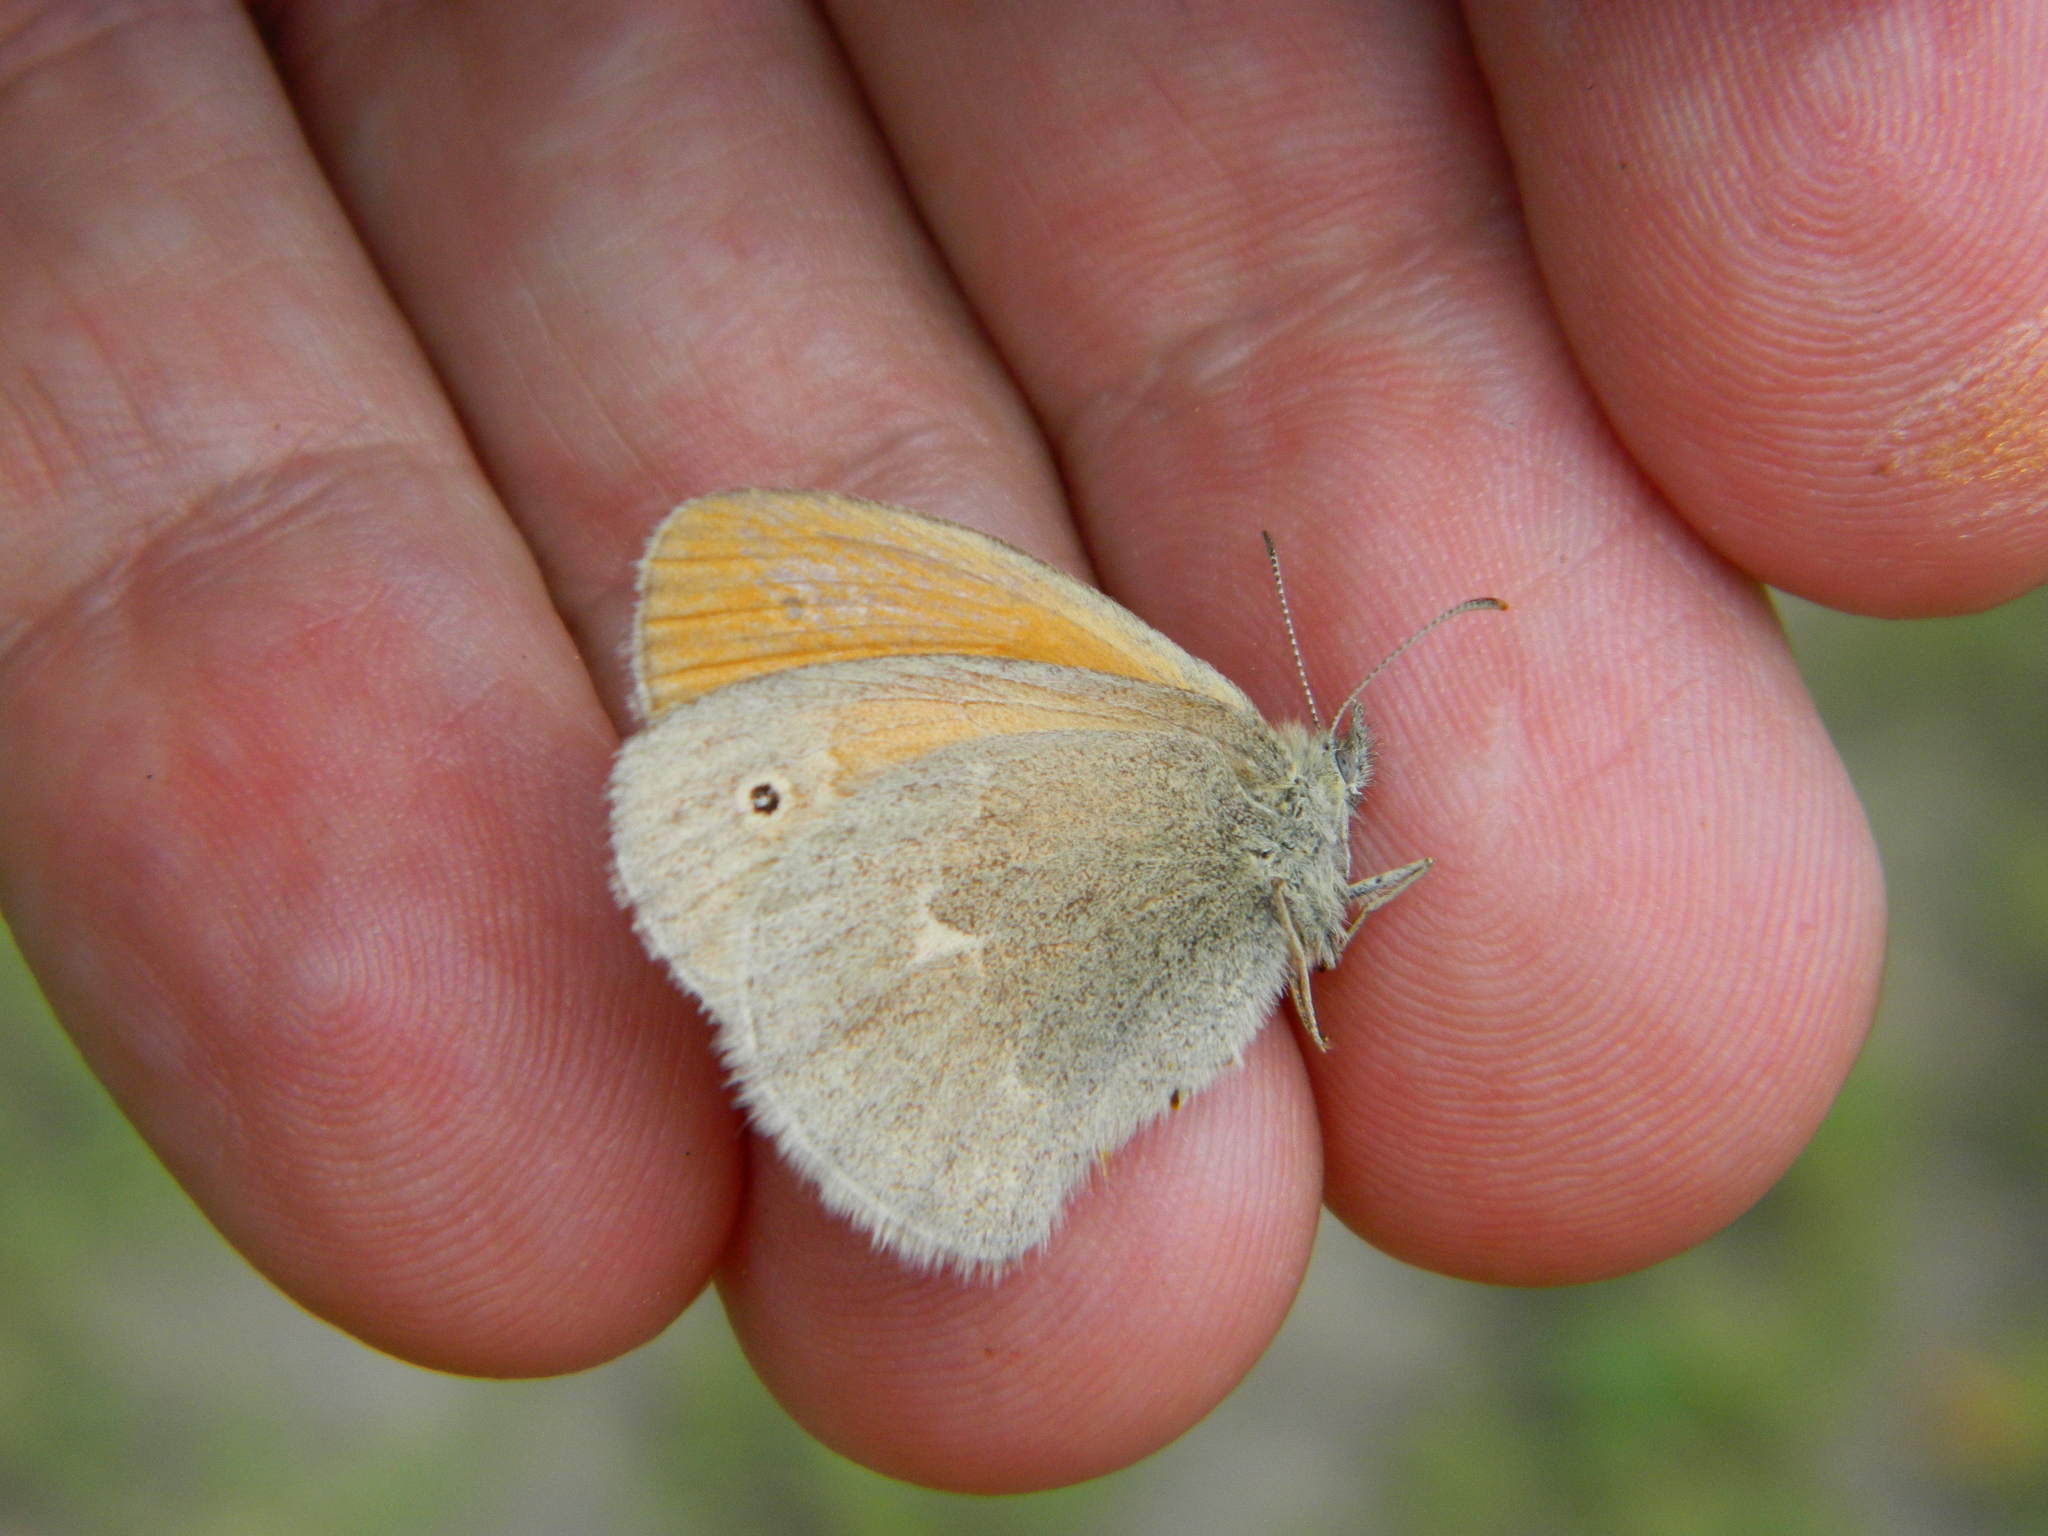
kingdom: Animalia
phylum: Arthropoda
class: Insecta
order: Lepidoptera
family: Nymphalidae
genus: Coenonympha
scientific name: Coenonympha california
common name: Common ringlet
